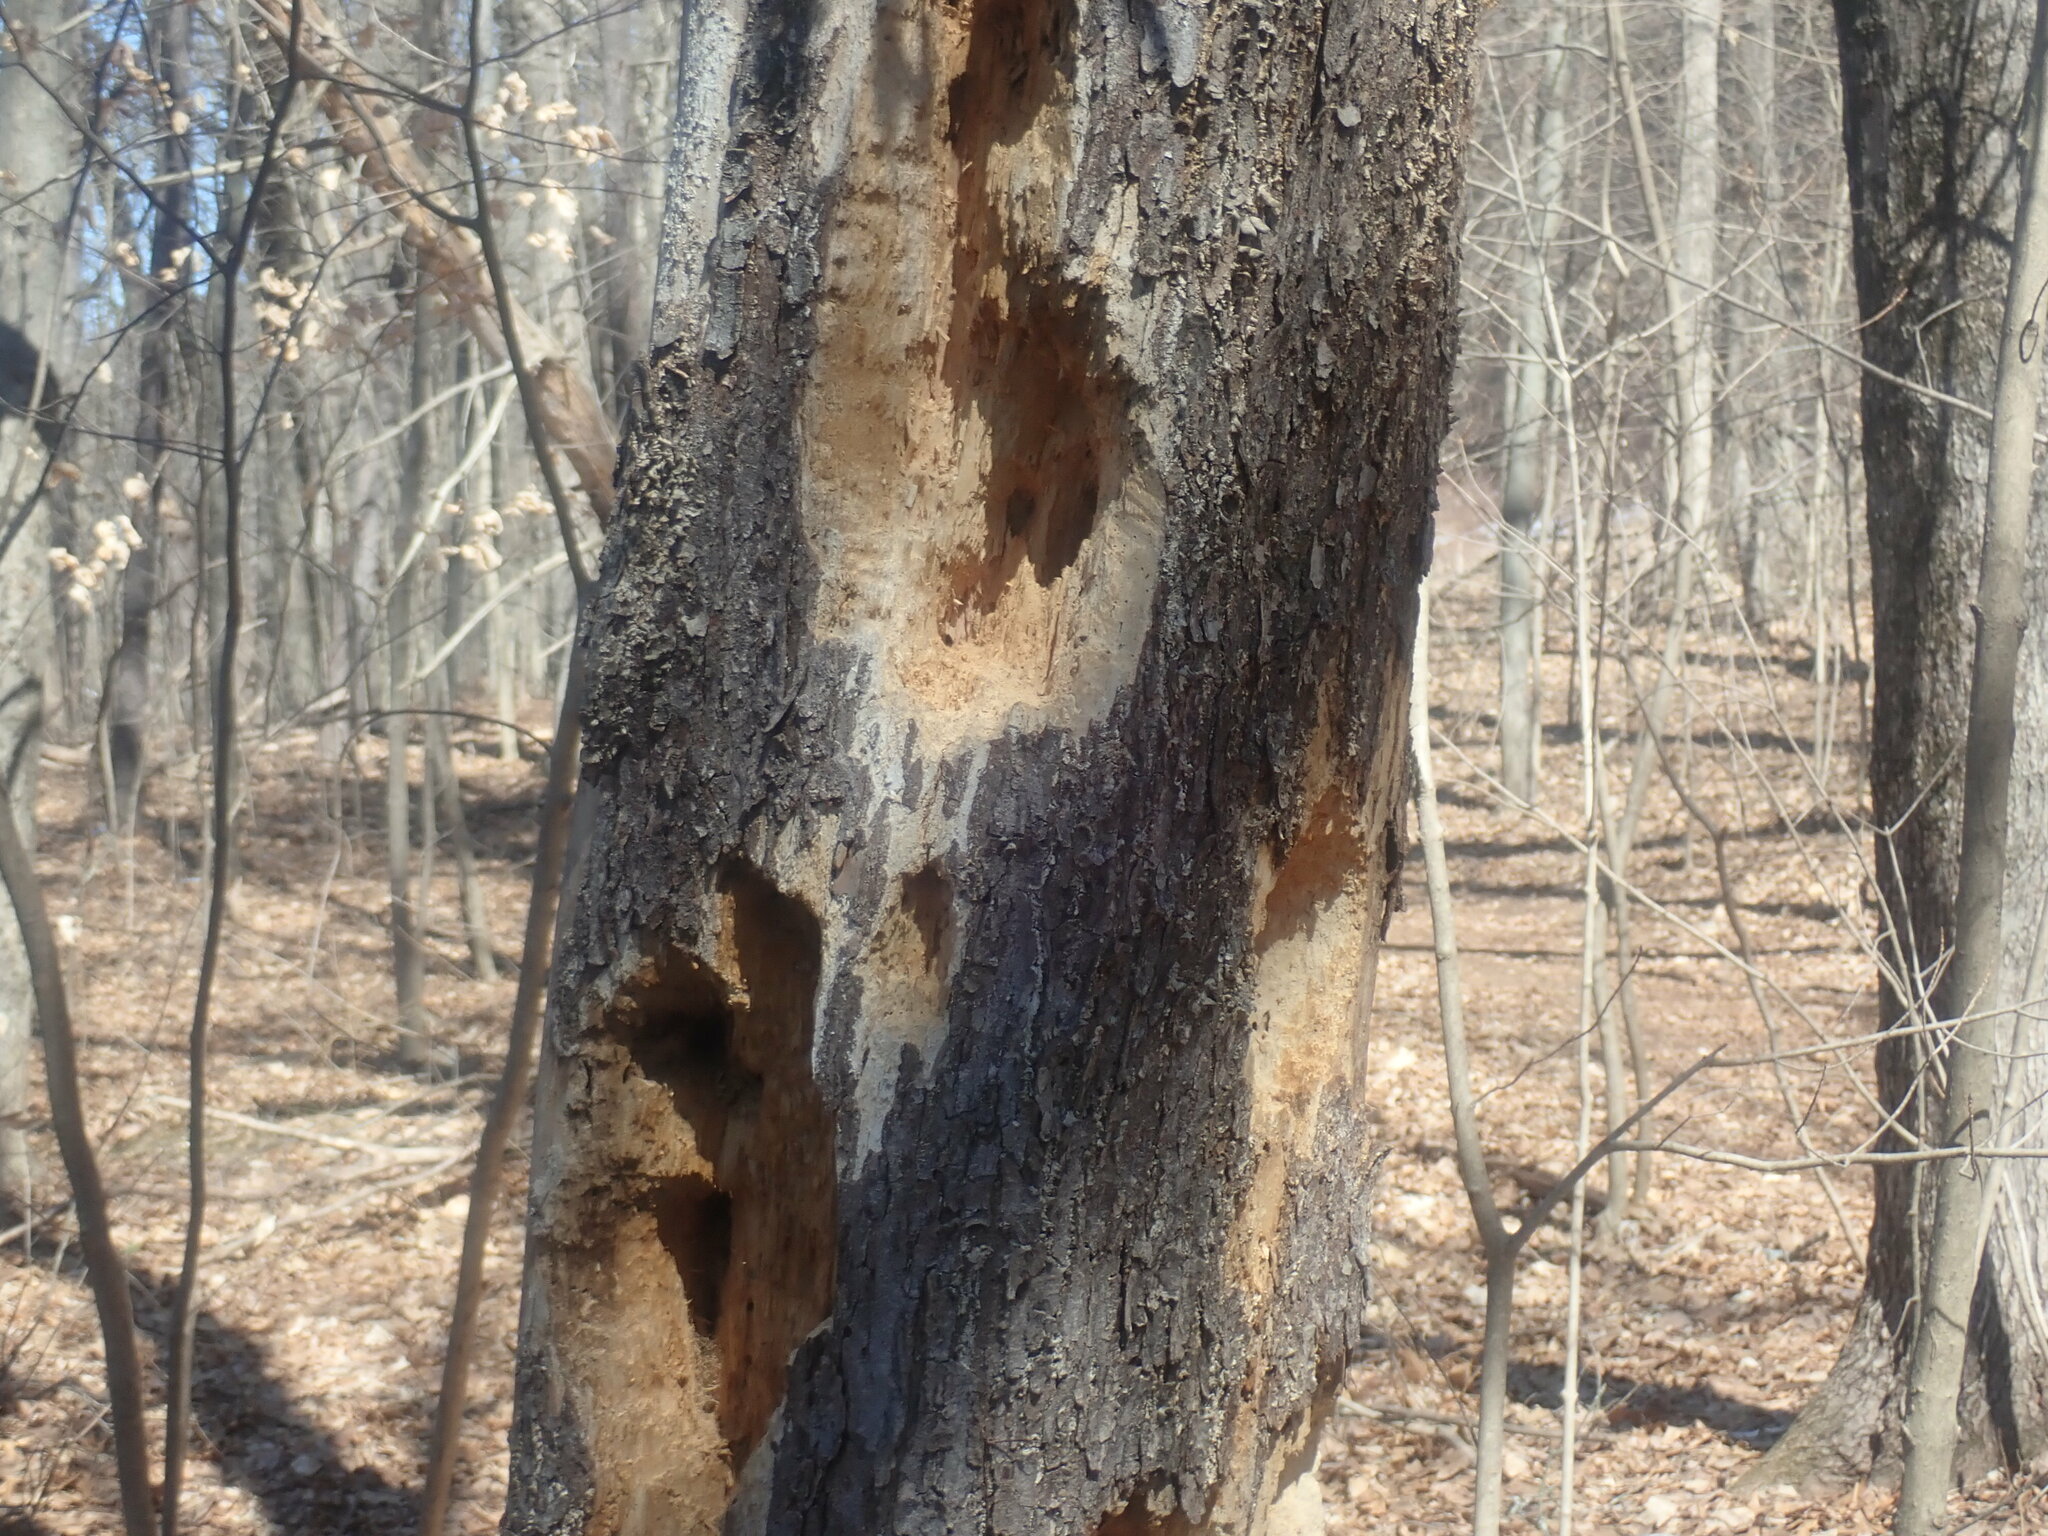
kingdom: Animalia
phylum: Chordata
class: Aves
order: Piciformes
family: Picidae
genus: Dryocopus
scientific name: Dryocopus pileatus
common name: Pileated woodpecker
